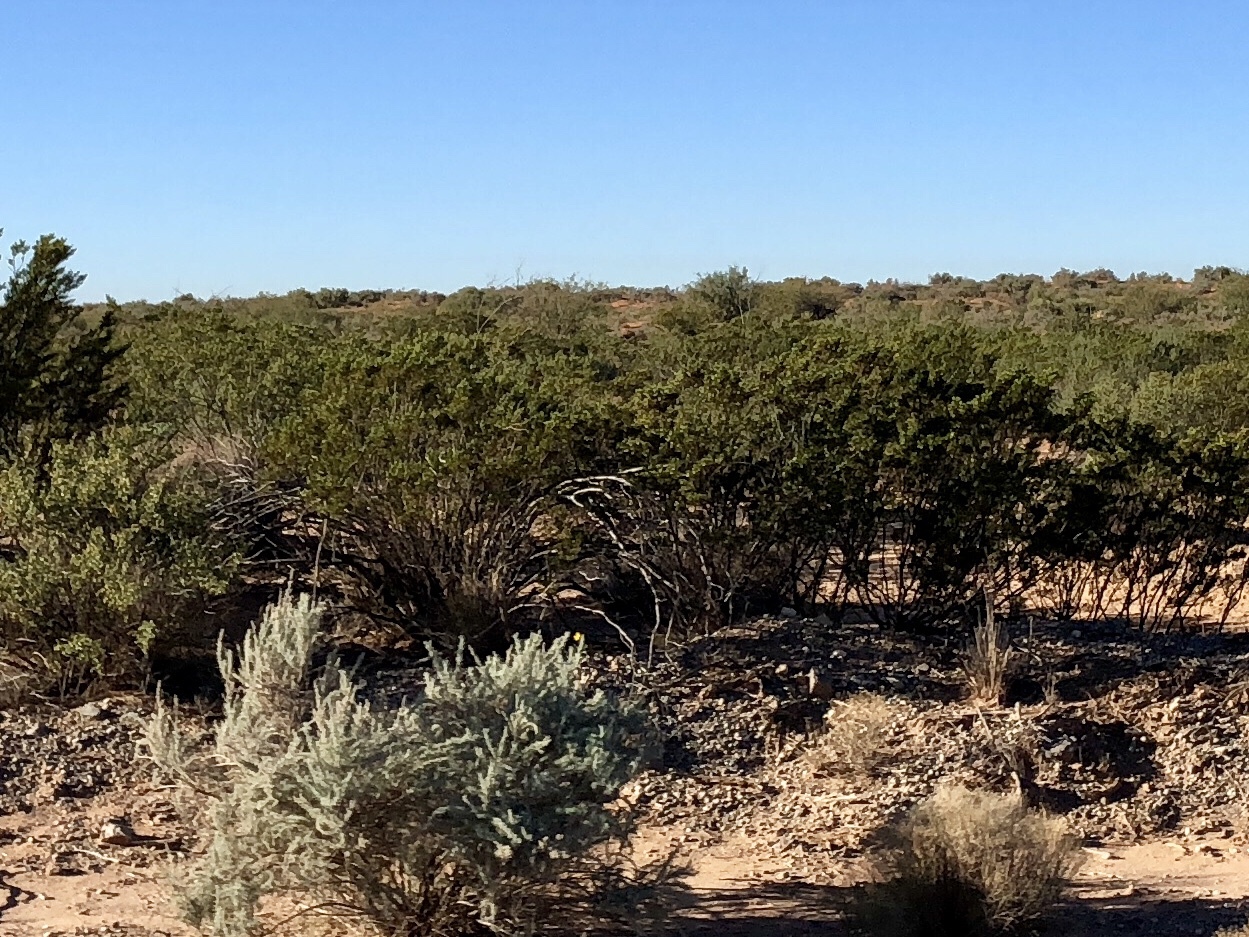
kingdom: Plantae
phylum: Tracheophyta
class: Liliopsida
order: Asparagales
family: Asparagaceae
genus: Yucca
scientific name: Yucca elata
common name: Palmella
